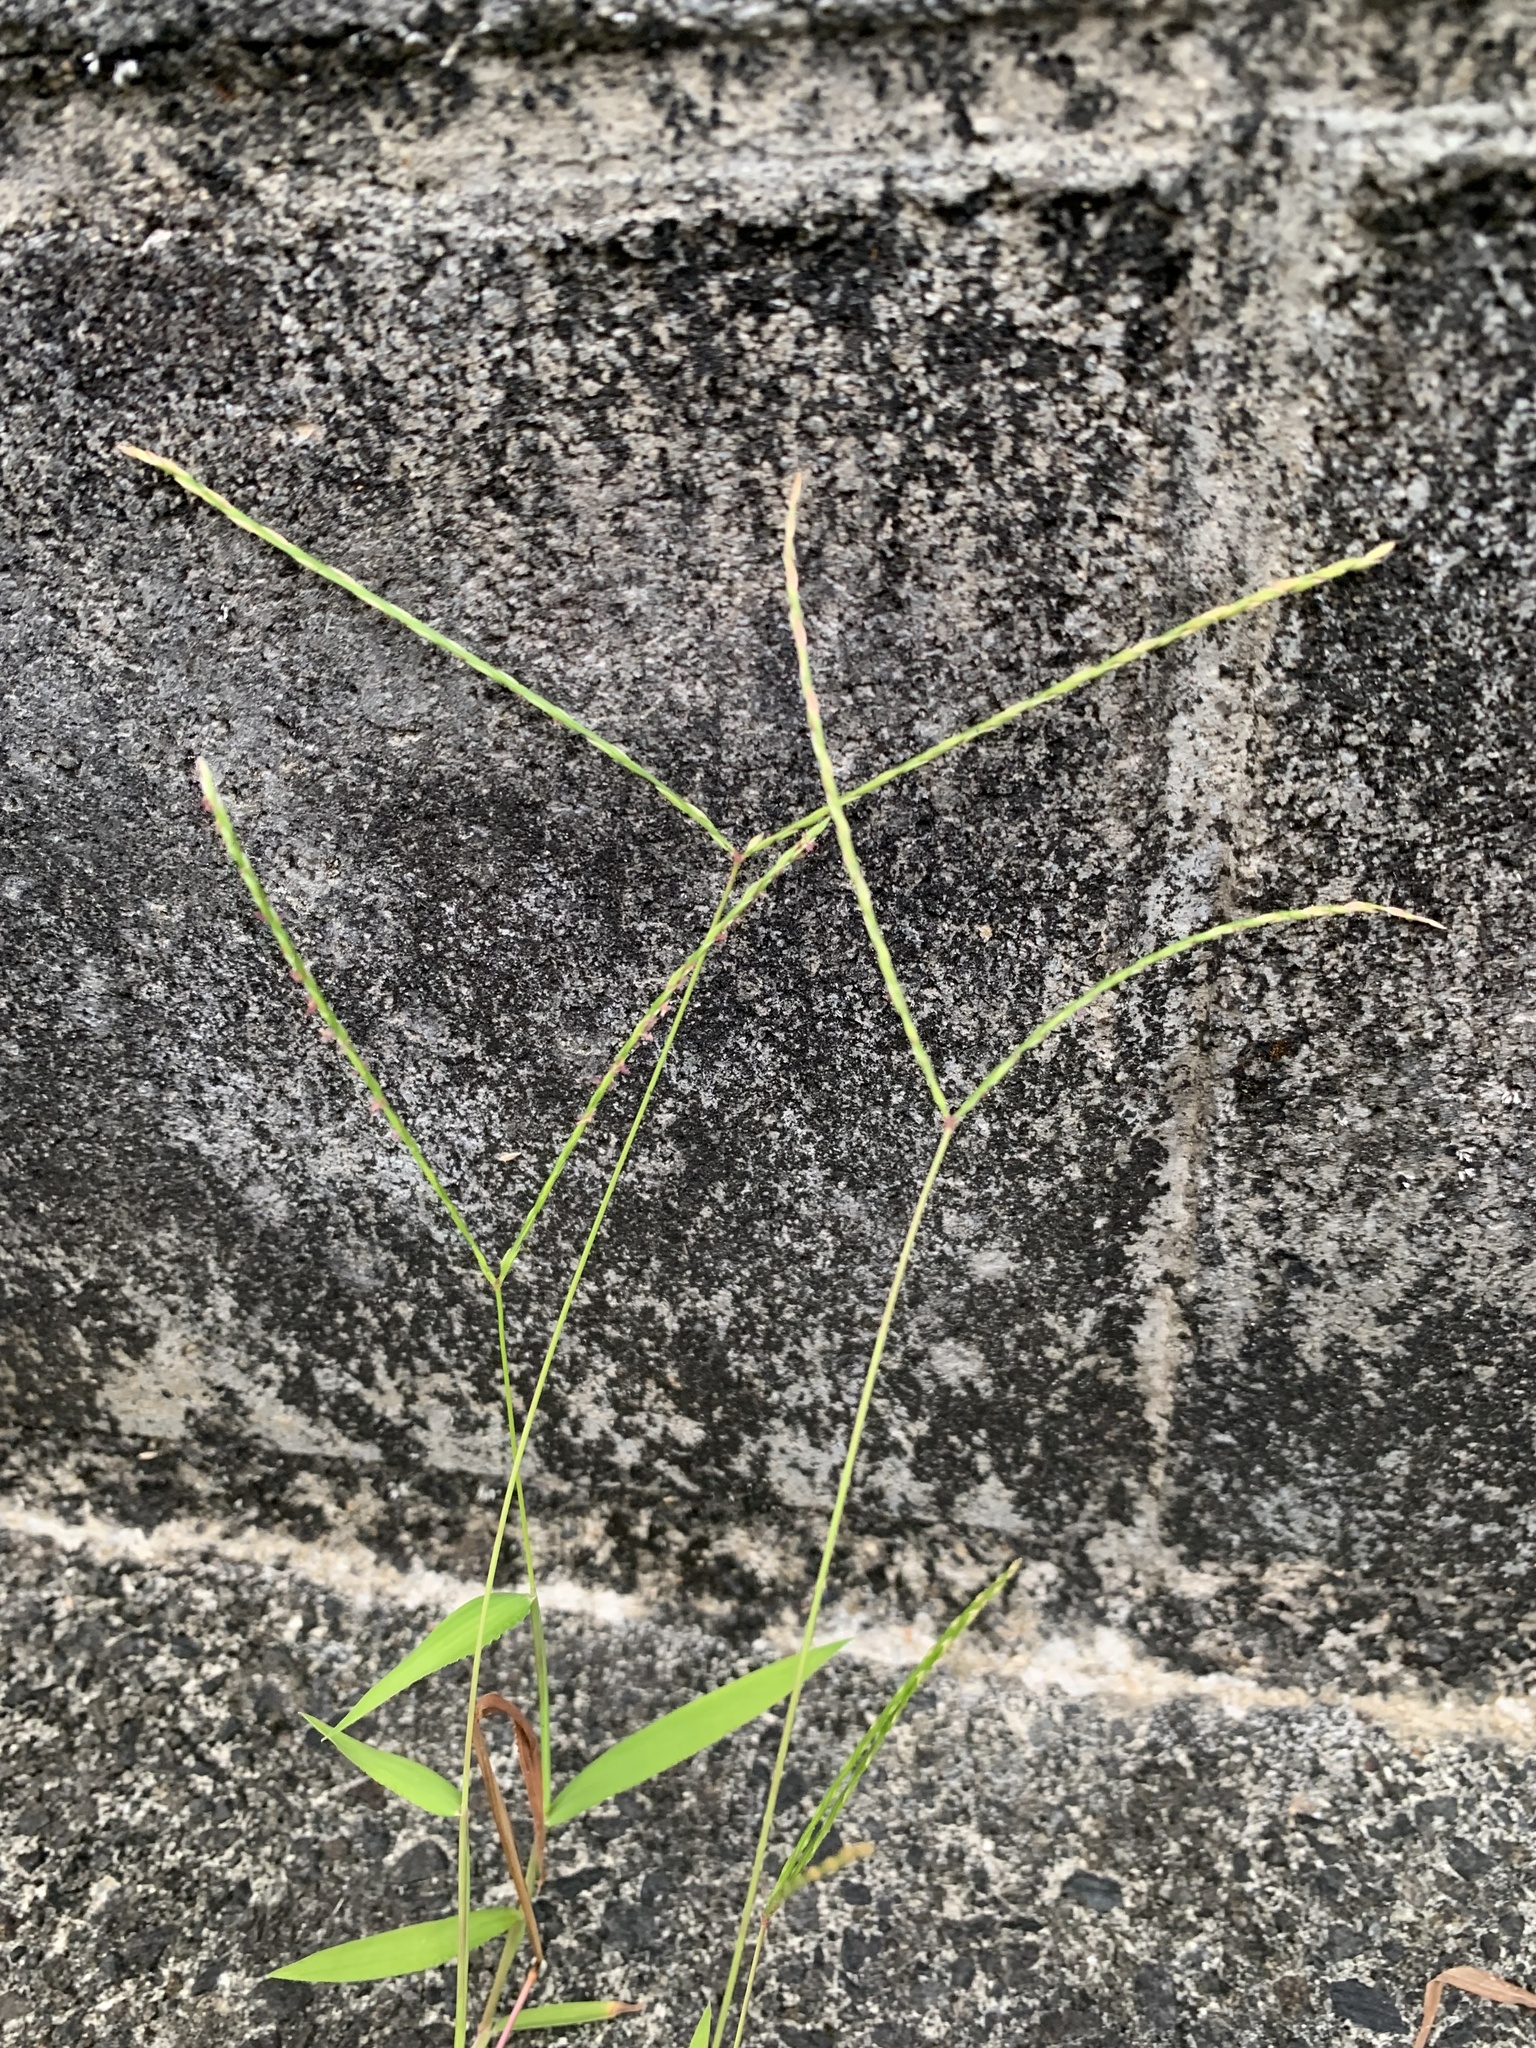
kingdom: Plantae
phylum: Tracheophyta
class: Liliopsida
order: Poales
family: Poaceae
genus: Digitaria
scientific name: Digitaria radicosa
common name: Trailing crabgrass
